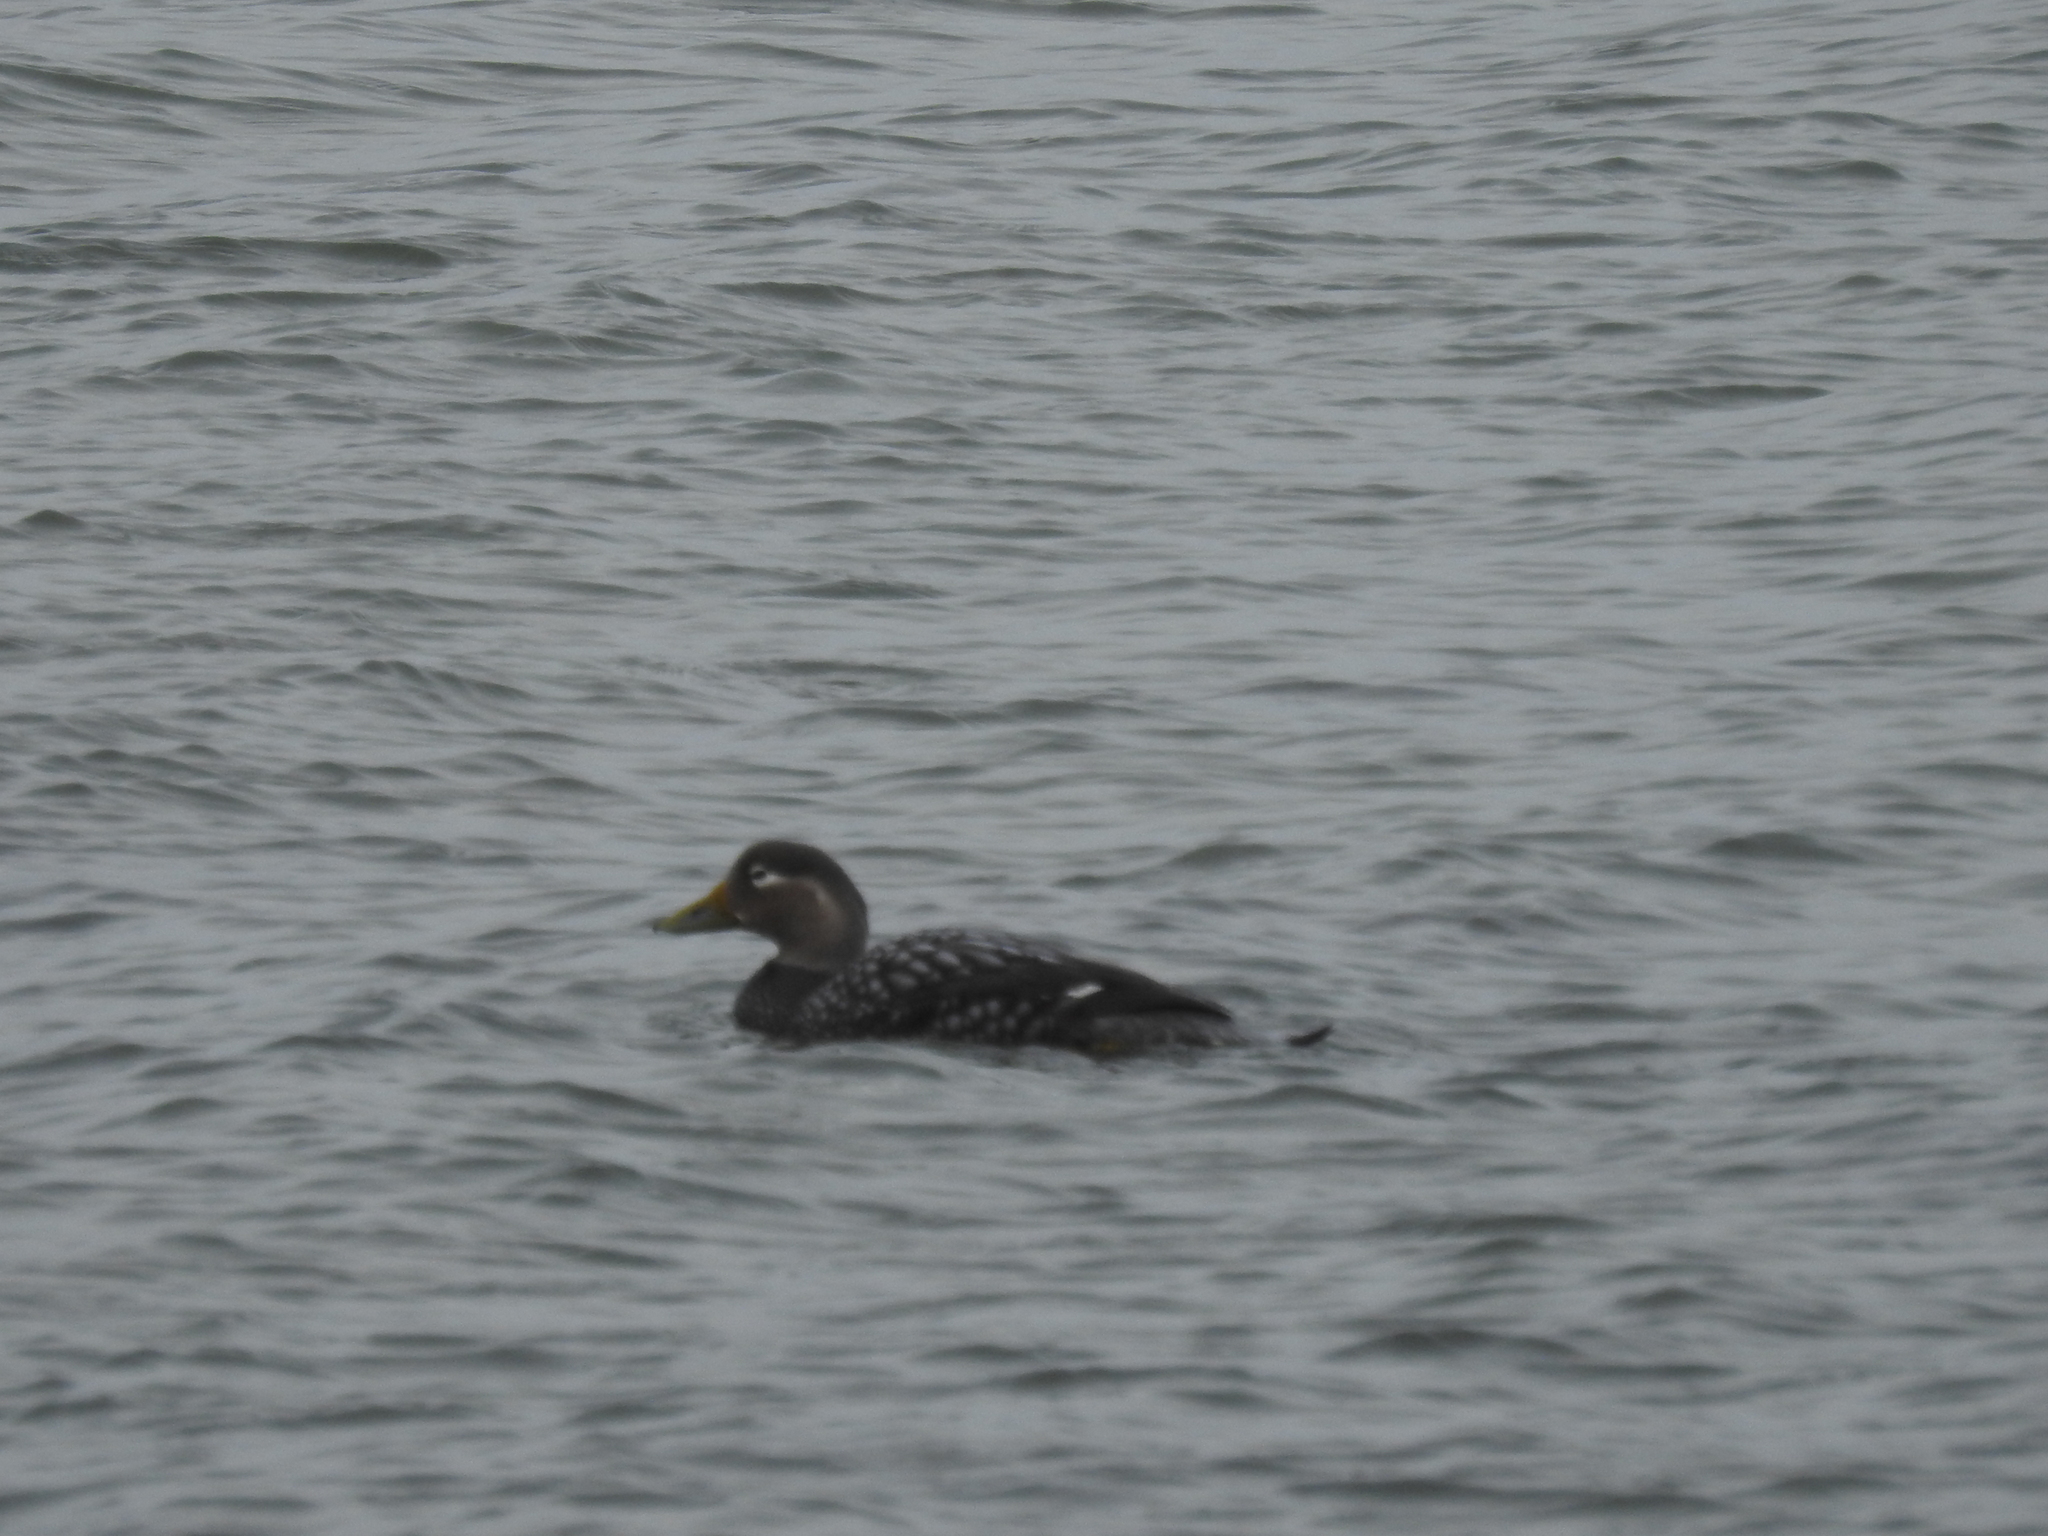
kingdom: Animalia
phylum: Chordata
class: Aves
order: Anseriformes
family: Anatidae
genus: Tachyeres
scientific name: Tachyeres patachonicus
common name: Flying steamer duck
